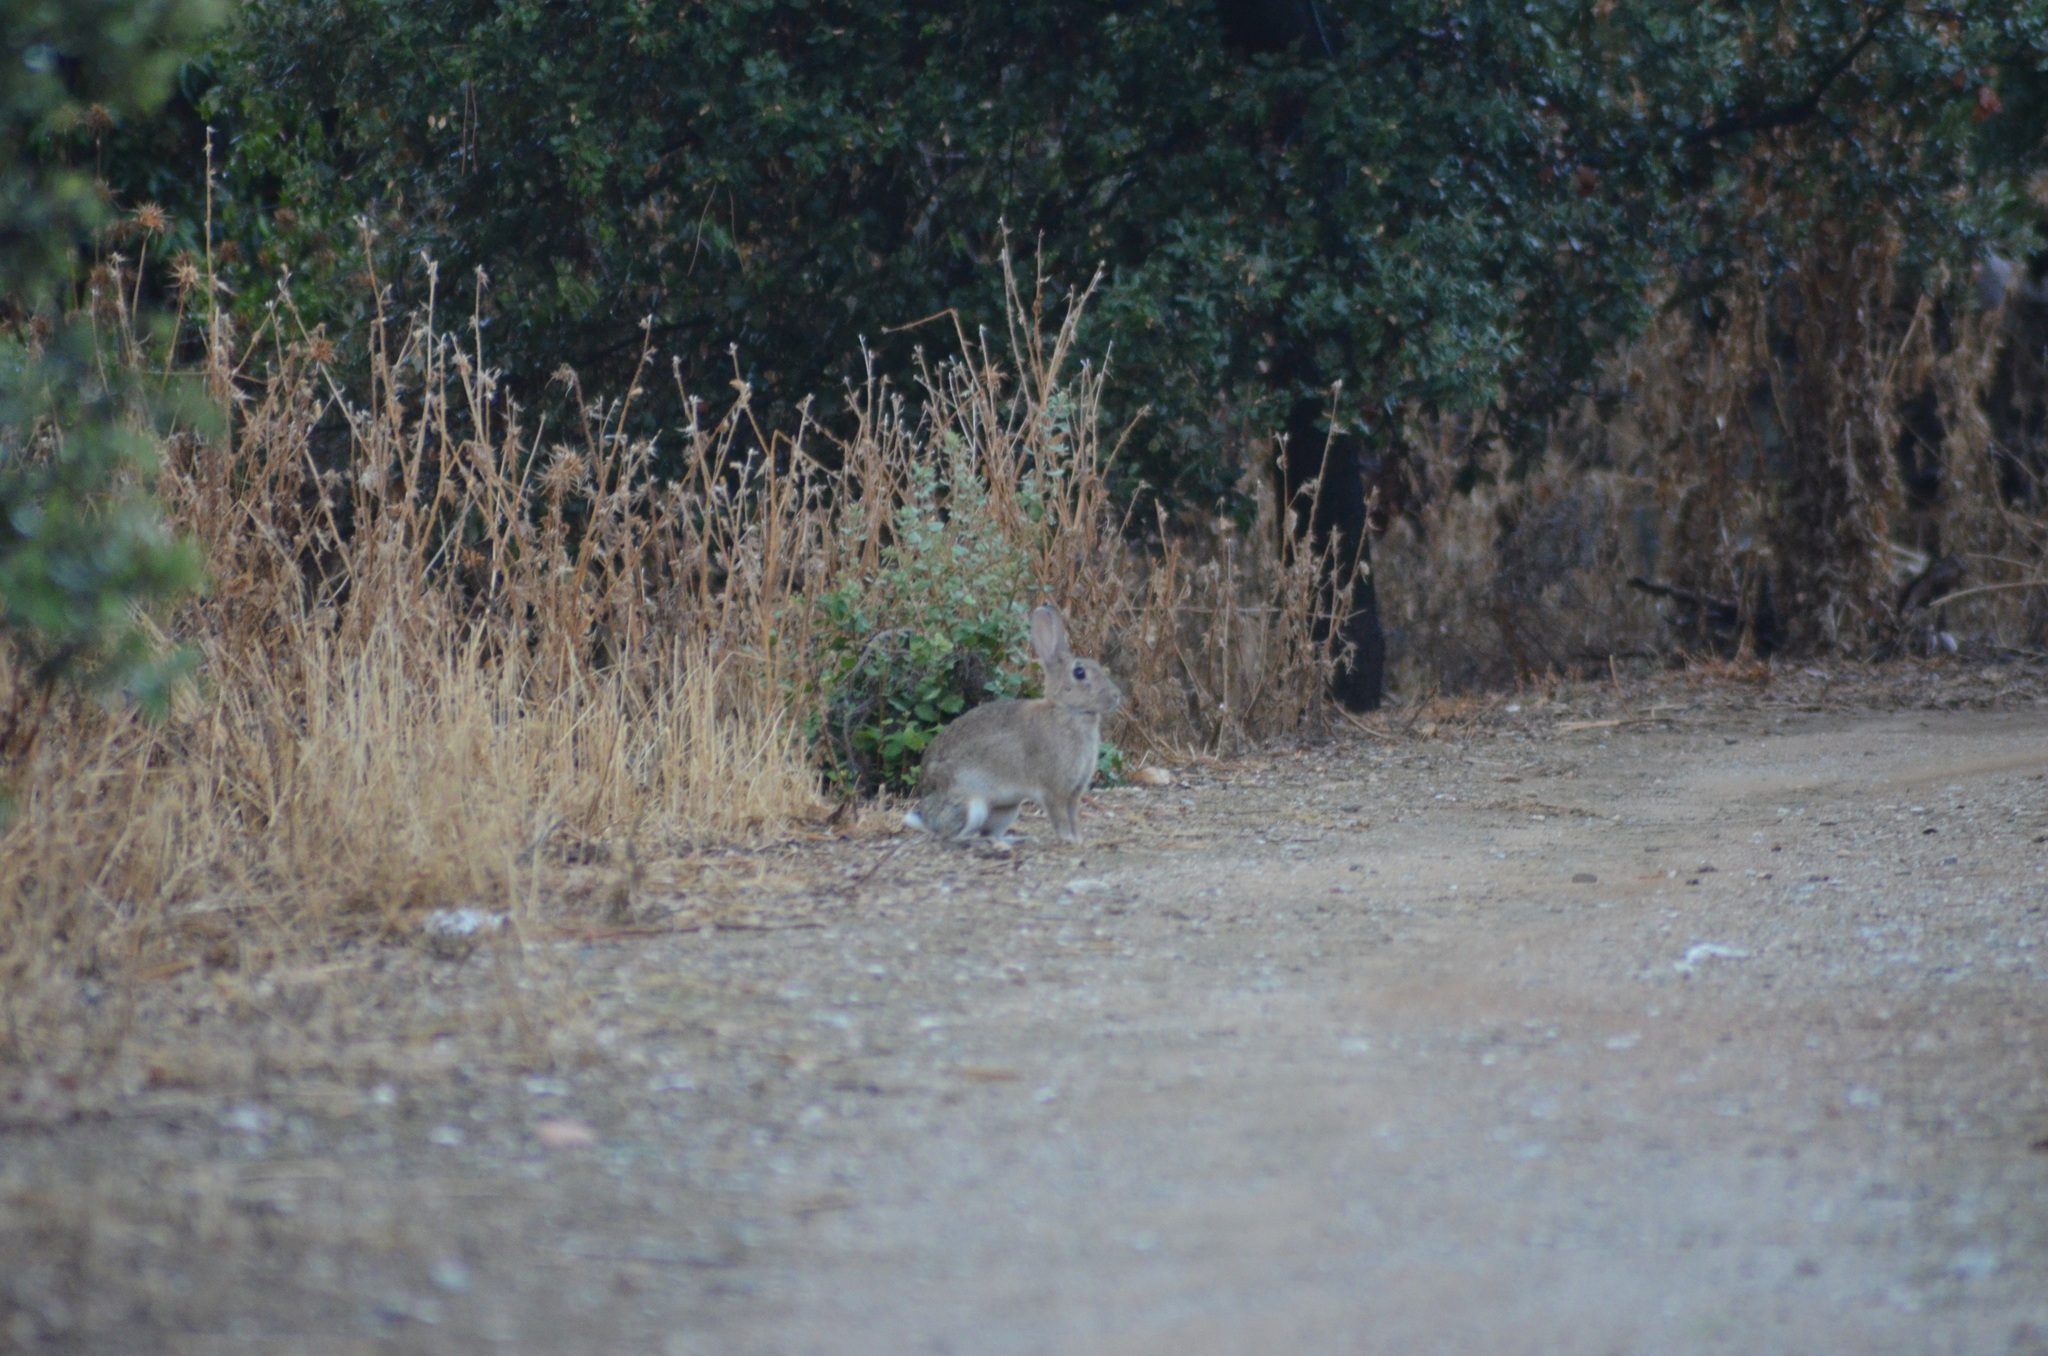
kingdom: Animalia
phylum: Chordata
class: Mammalia
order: Lagomorpha
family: Leporidae
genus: Oryctolagus
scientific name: Oryctolagus cuniculus
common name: European rabbit
